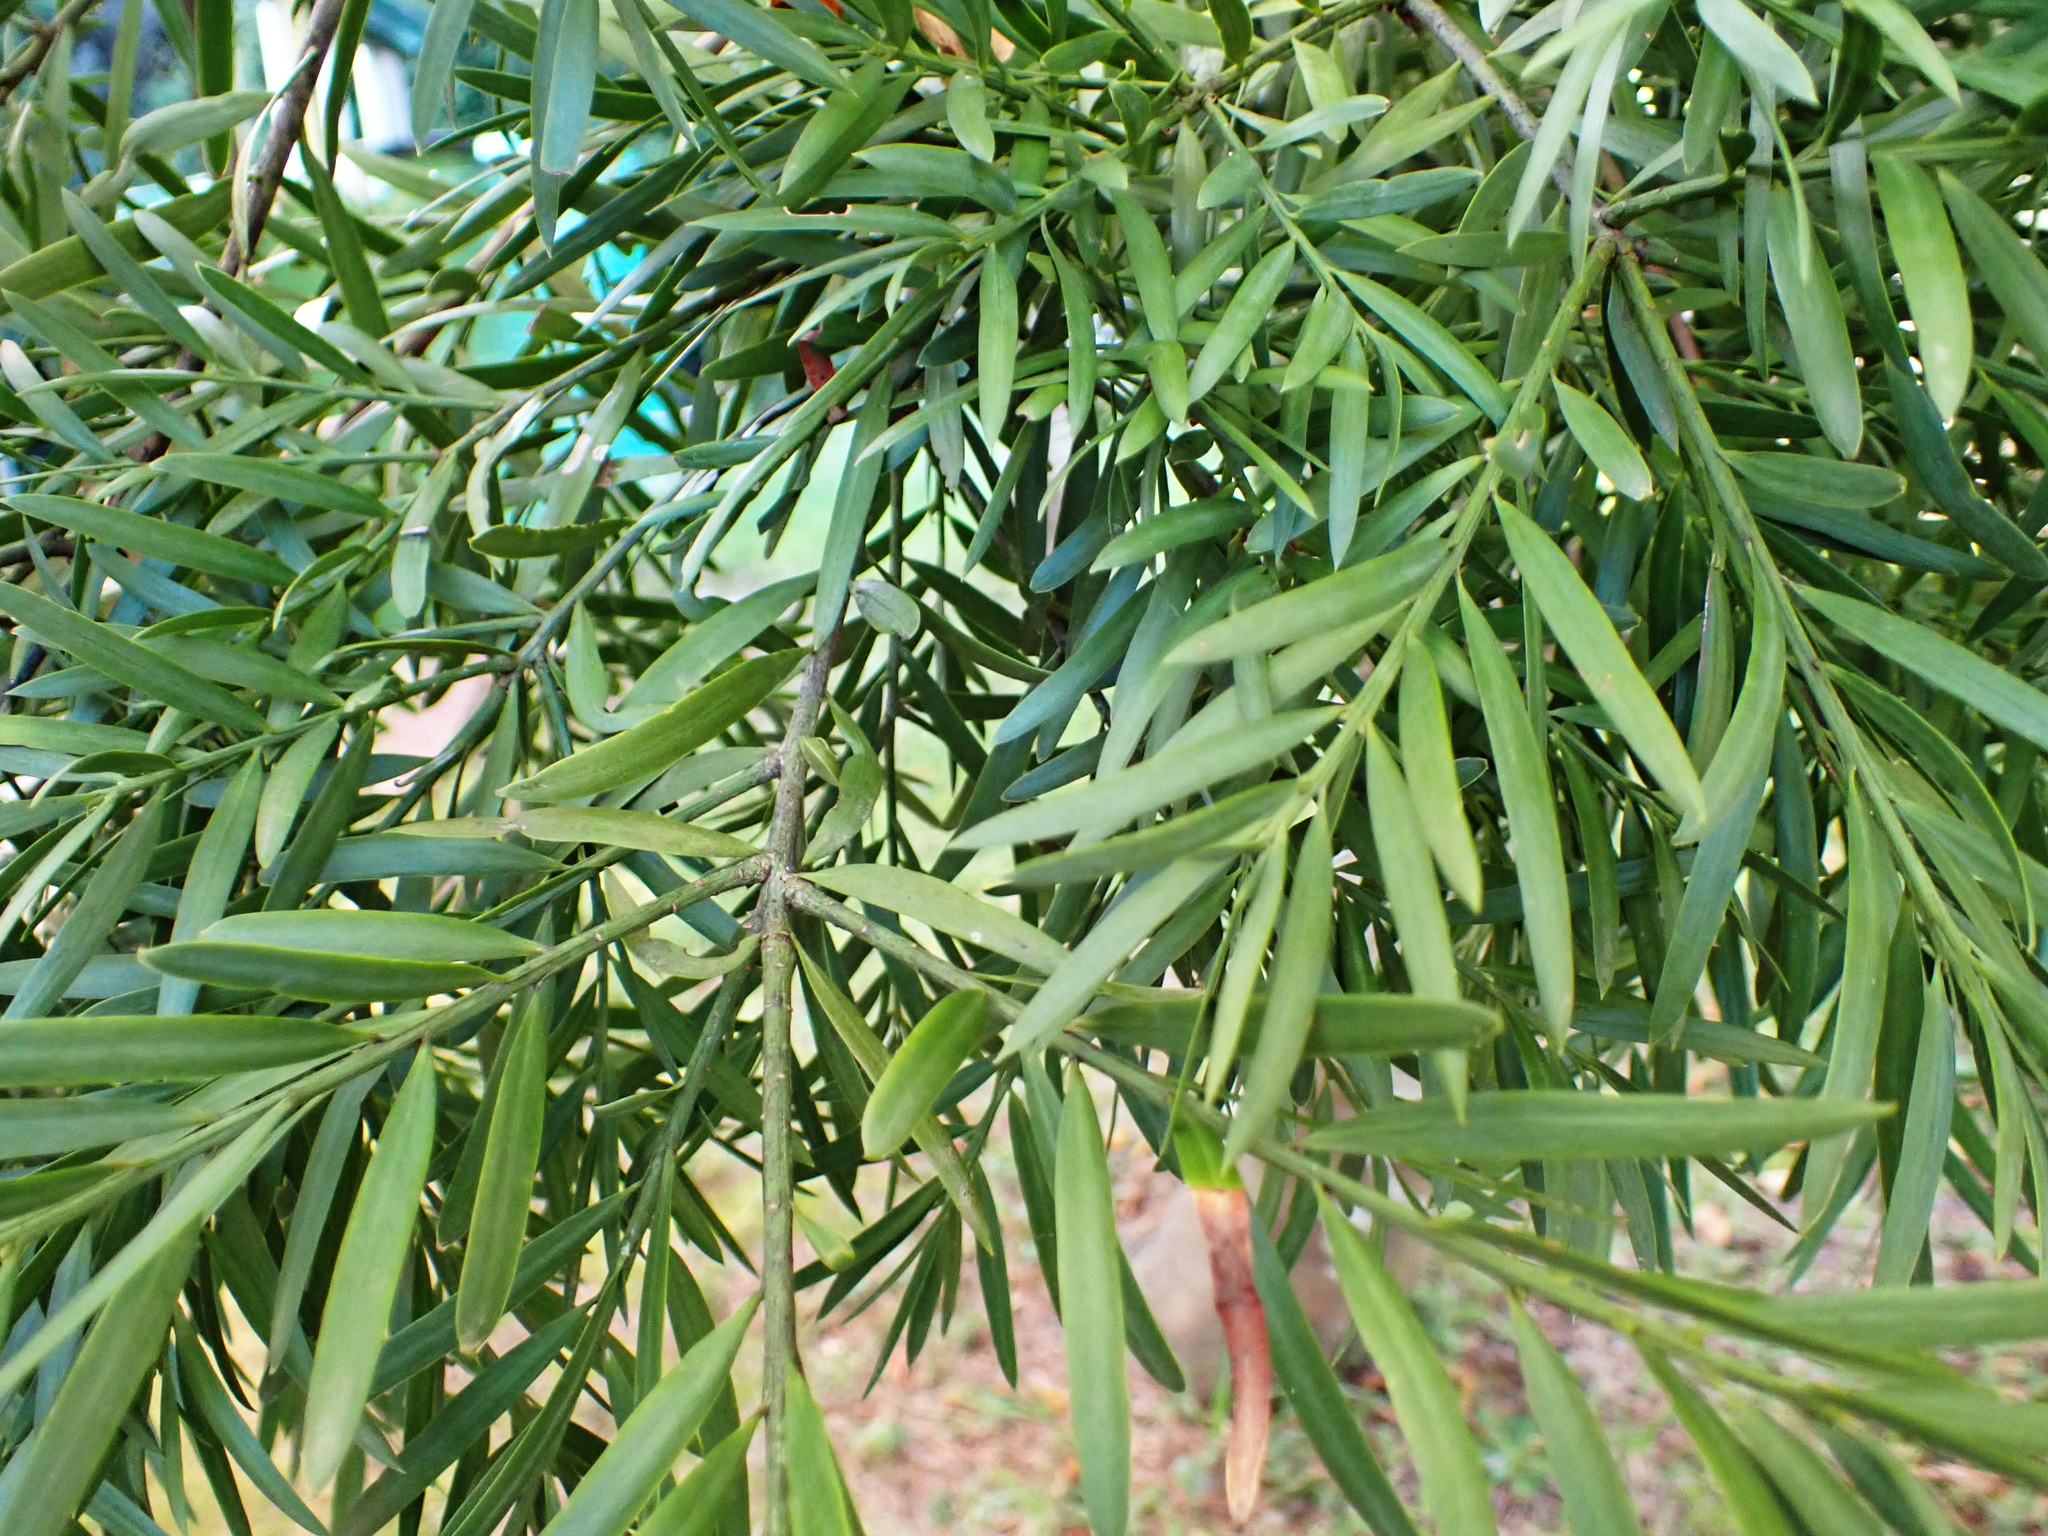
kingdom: Plantae
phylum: Tracheophyta
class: Pinopsida
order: Pinales
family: Podocarpaceae
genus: Afrocarpus
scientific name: Afrocarpus falcatus
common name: Bastard yellowwood
